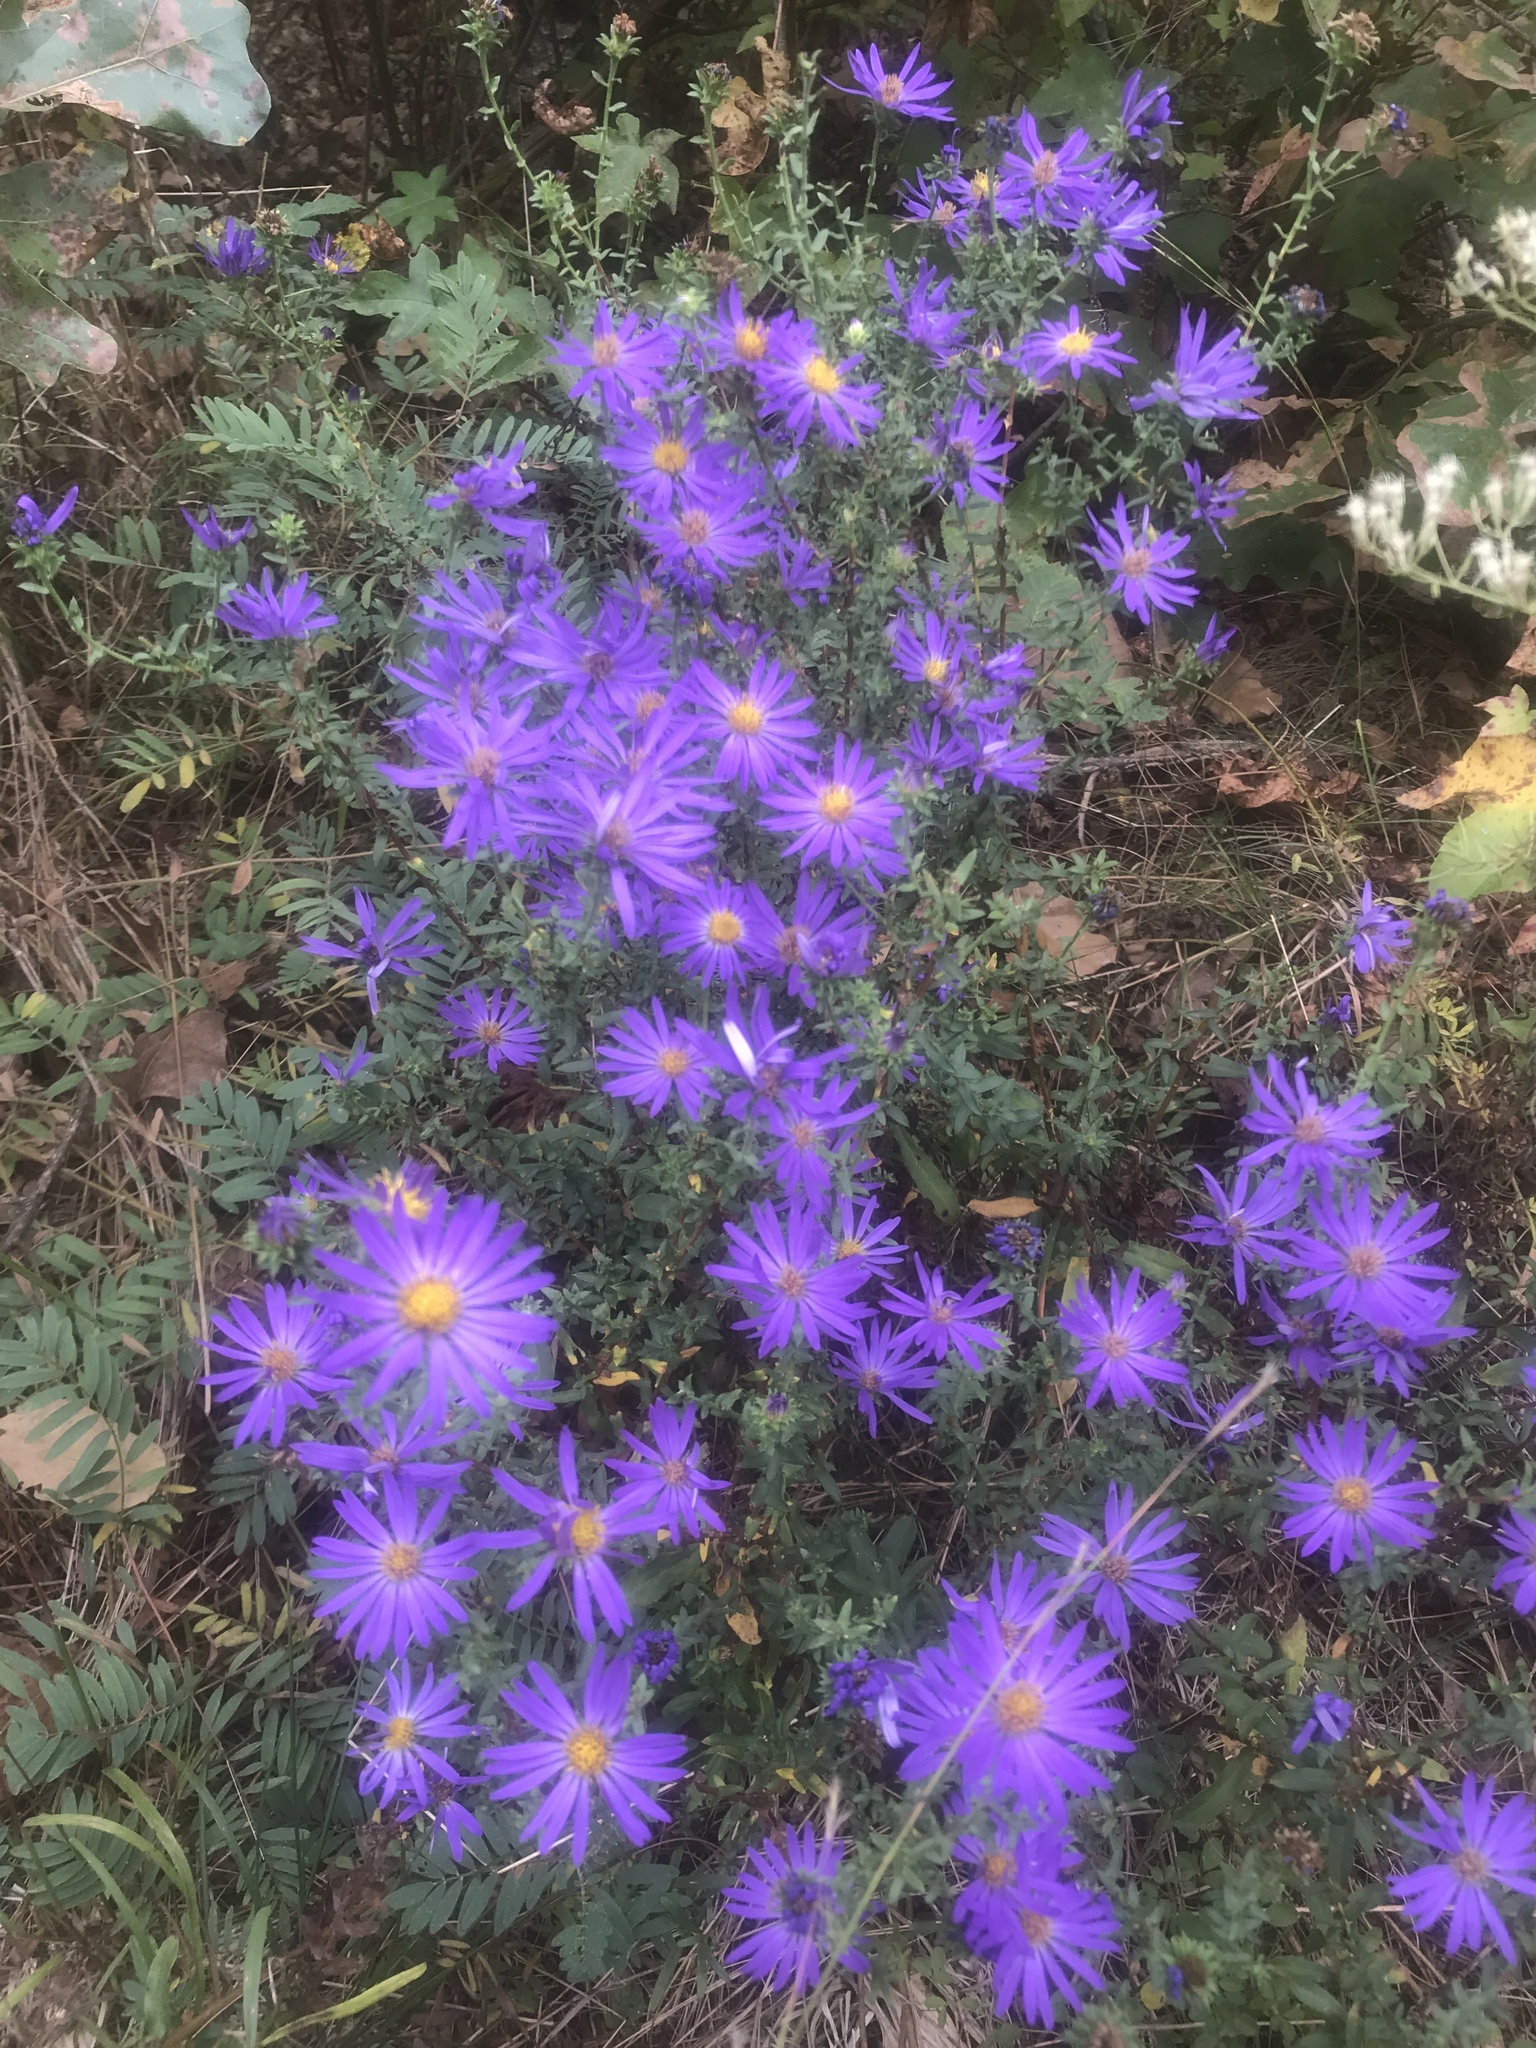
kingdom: Plantae
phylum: Tracheophyta
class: Magnoliopsida
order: Asterales
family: Asteraceae
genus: Symphyotrichum
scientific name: Symphyotrichum grandiflorum
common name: Big-head aster
